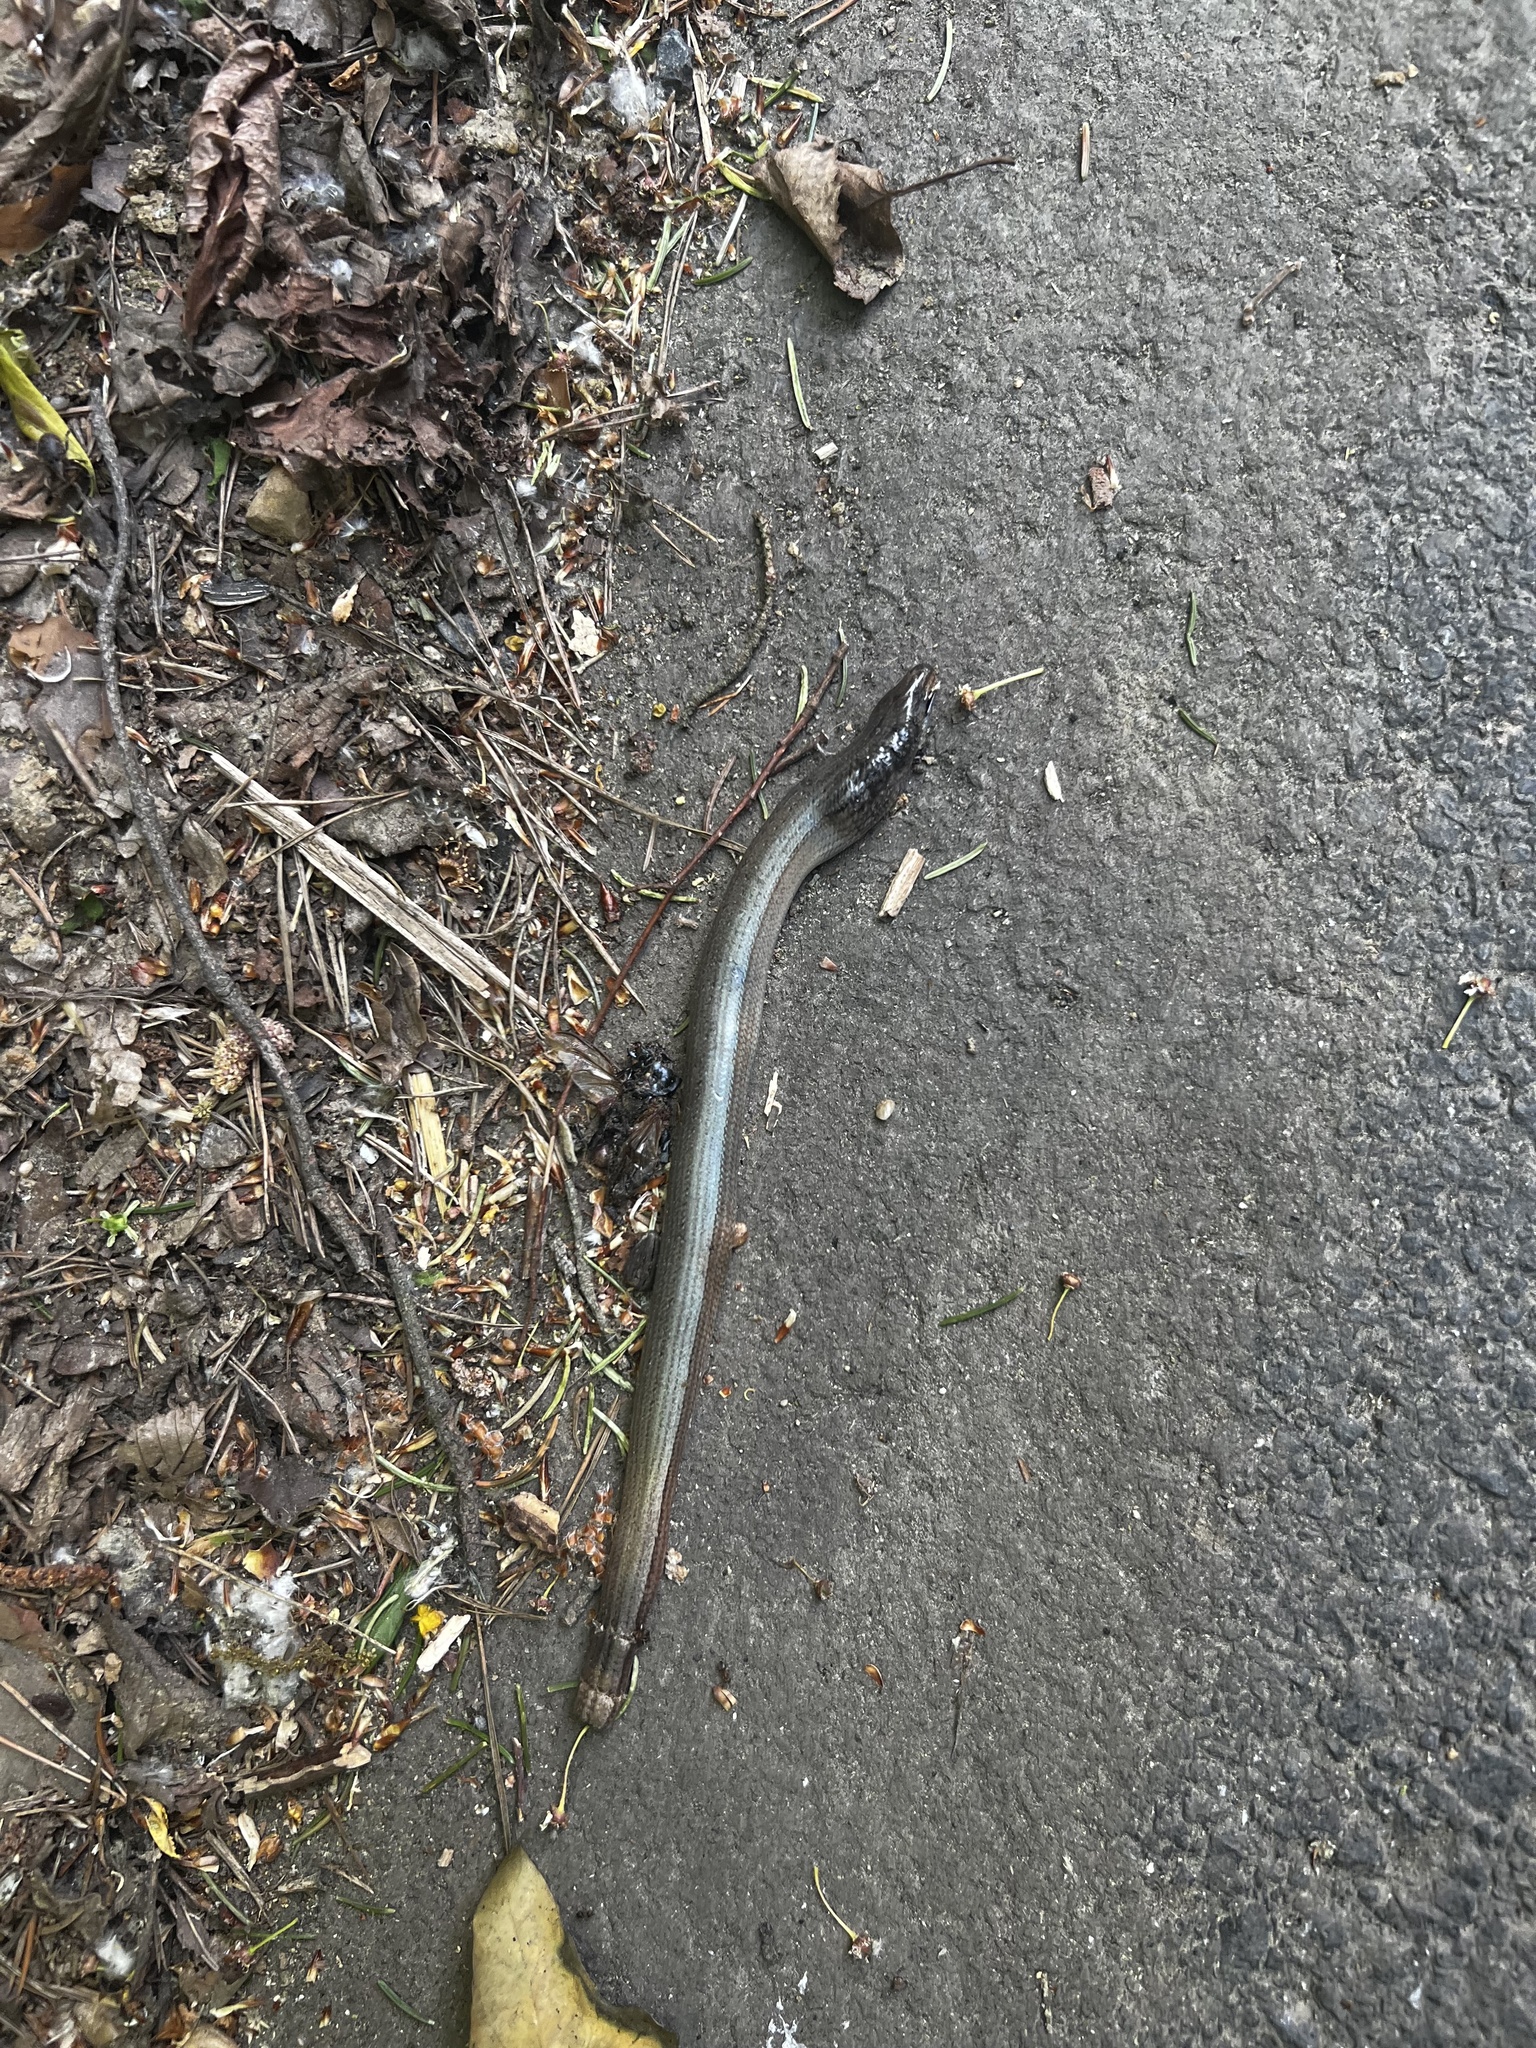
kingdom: Animalia
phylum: Chordata
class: Squamata
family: Anguidae
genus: Anguis
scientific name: Anguis fragilis
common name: Slow worm
